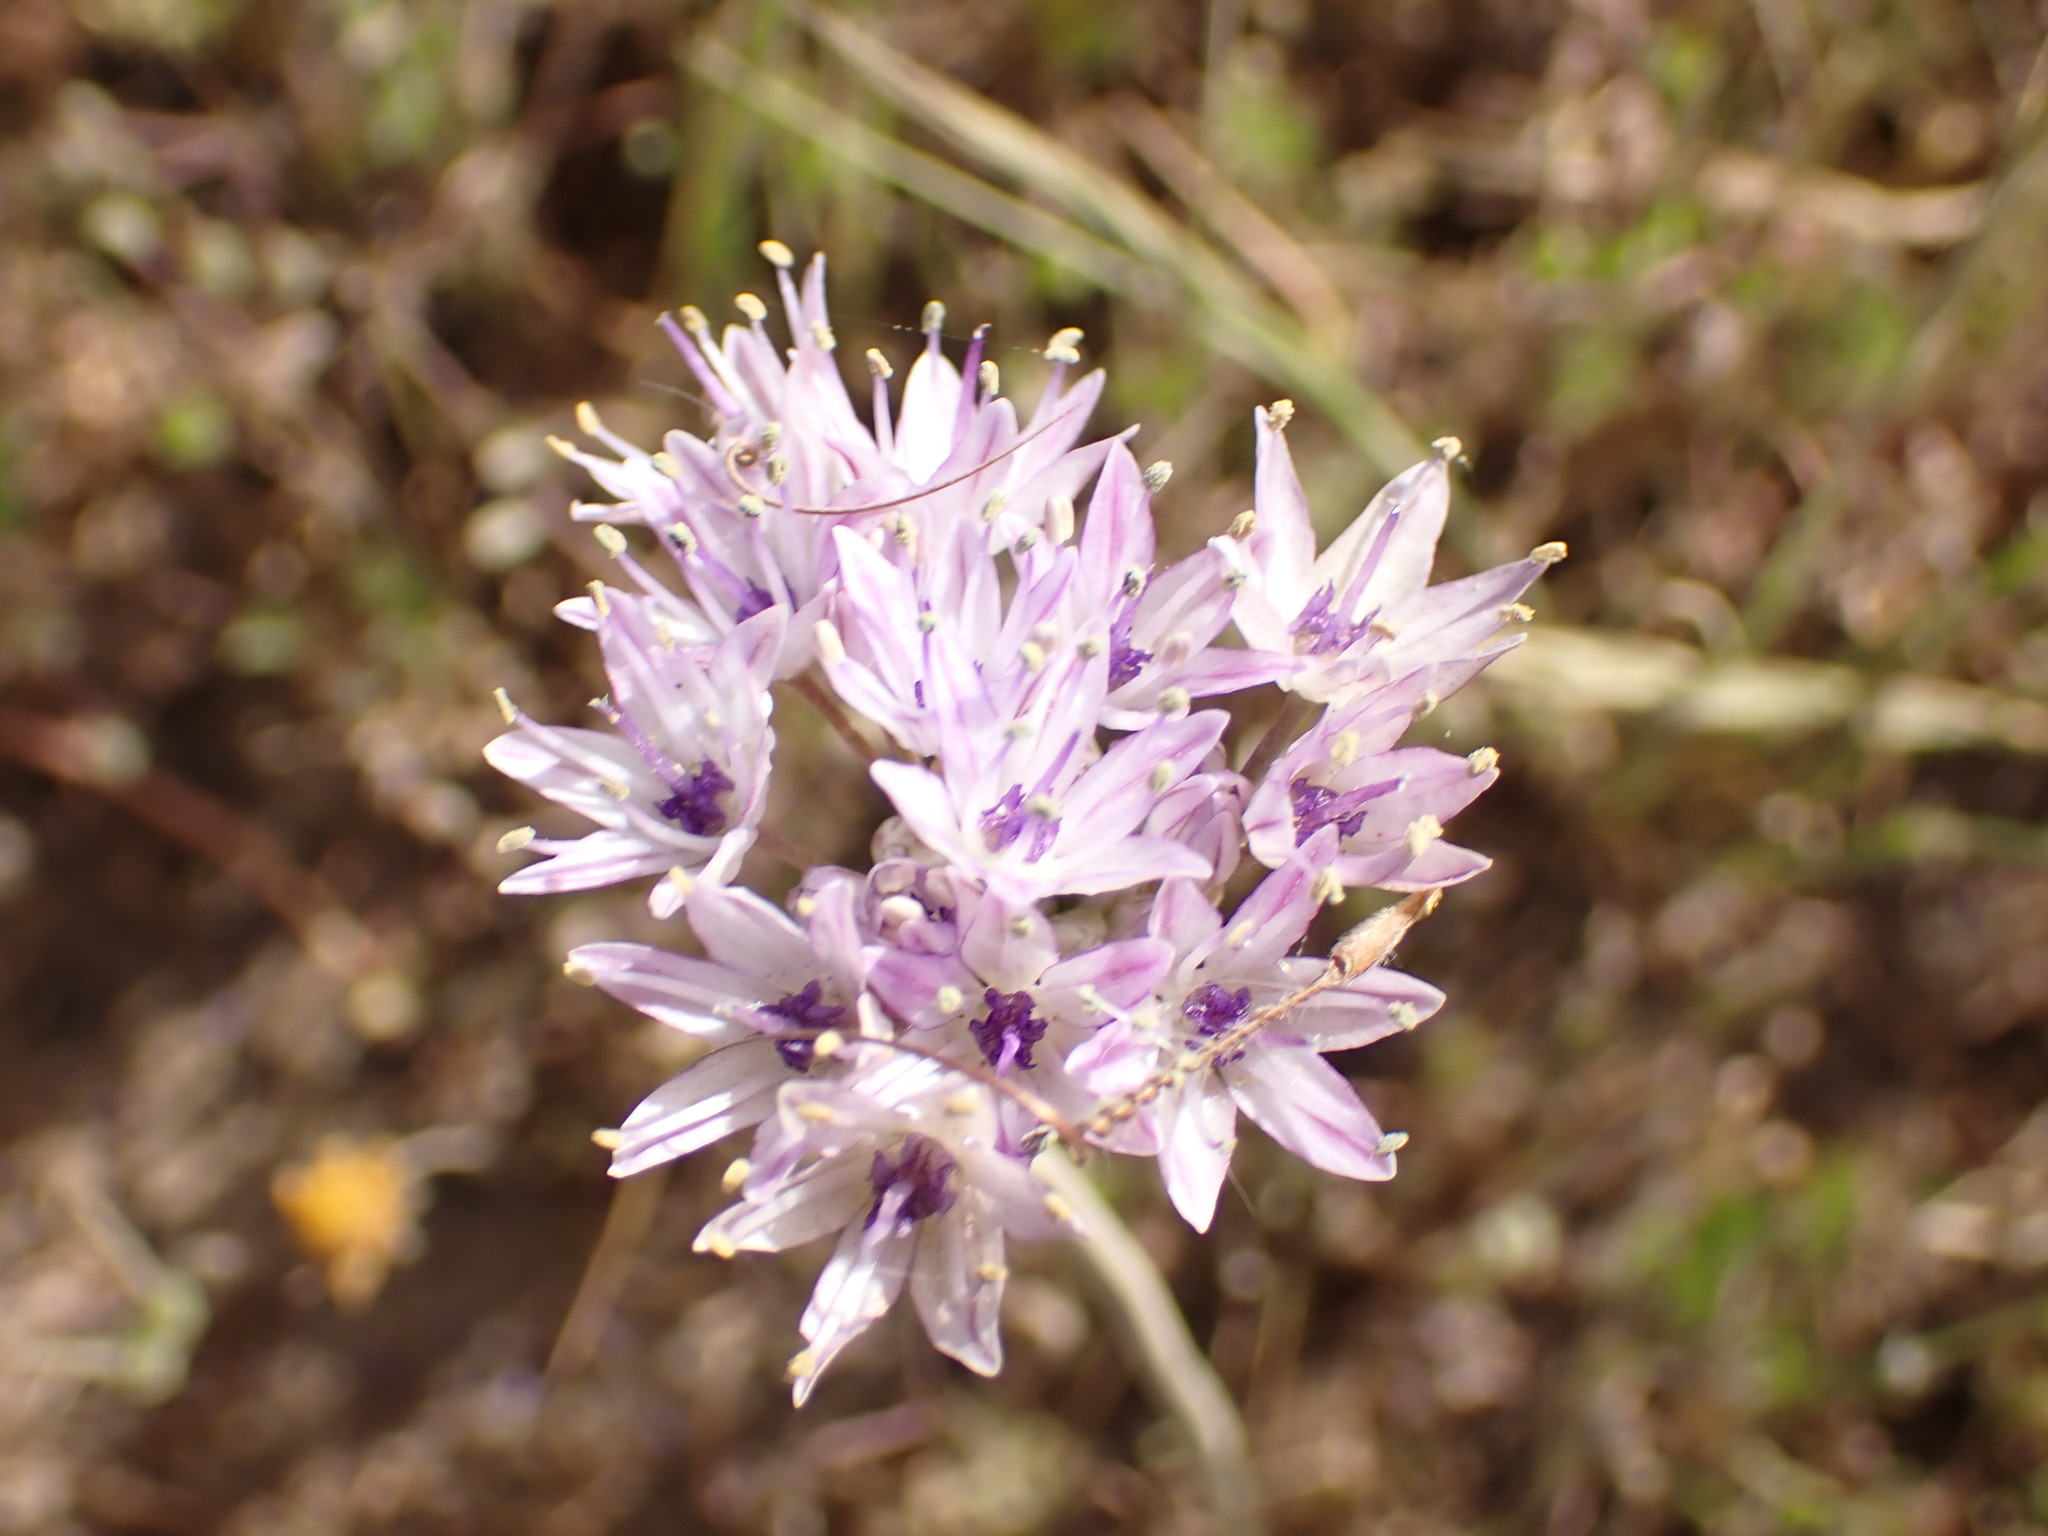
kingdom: Plantae
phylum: Tracheophyta
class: Liliopsida
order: Asparagales
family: Amaryllidaceae
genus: Allium
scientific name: Allium howellii
